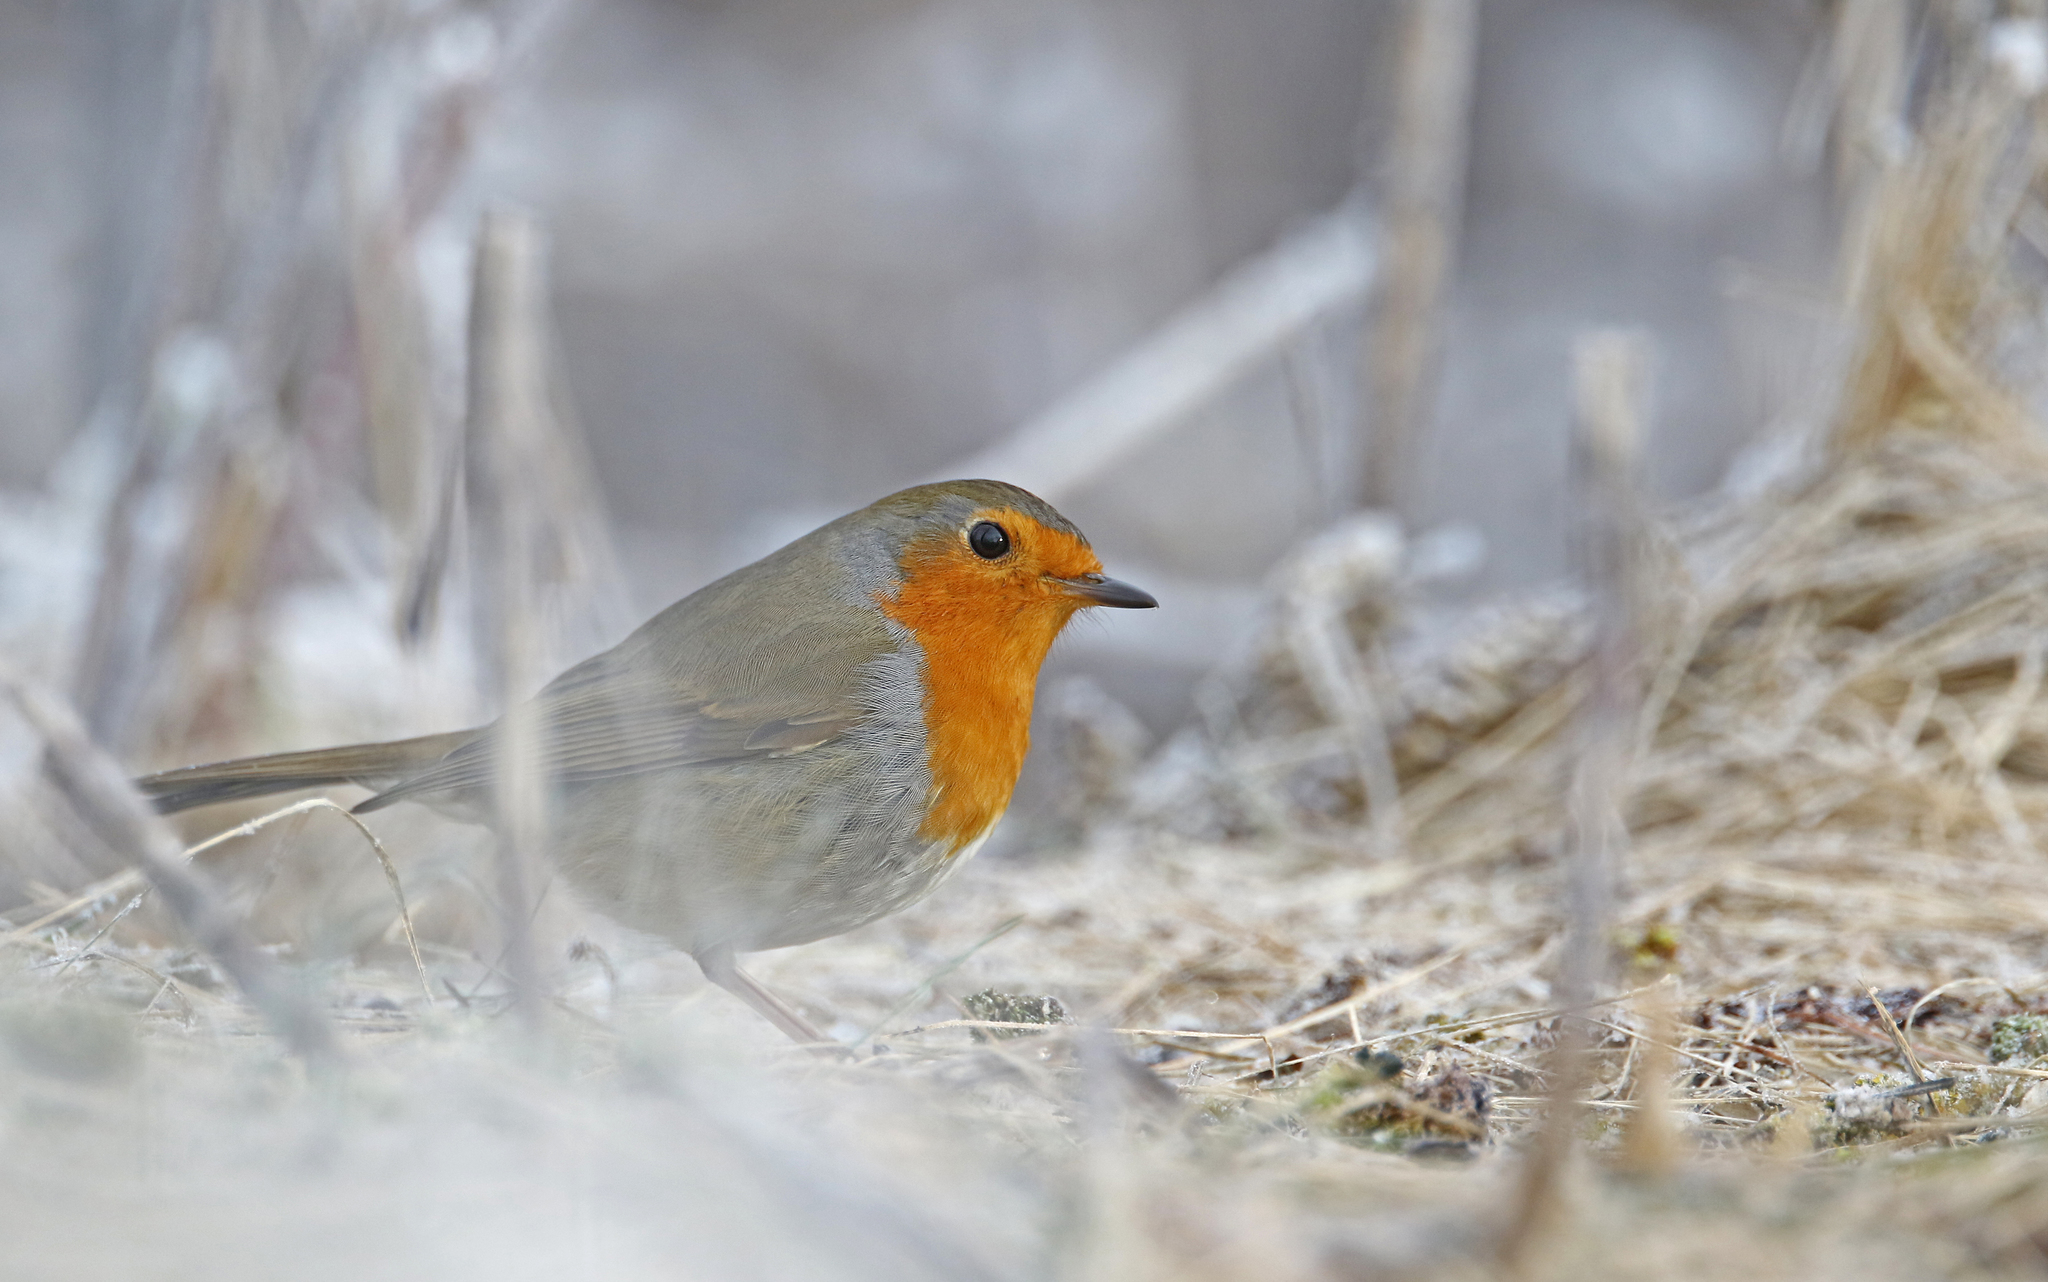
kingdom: Animalia
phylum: Chordata
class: Aves
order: Passeriformes
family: Muscicapidae
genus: Erithacus
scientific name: Erithacus rubecula
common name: European robin
